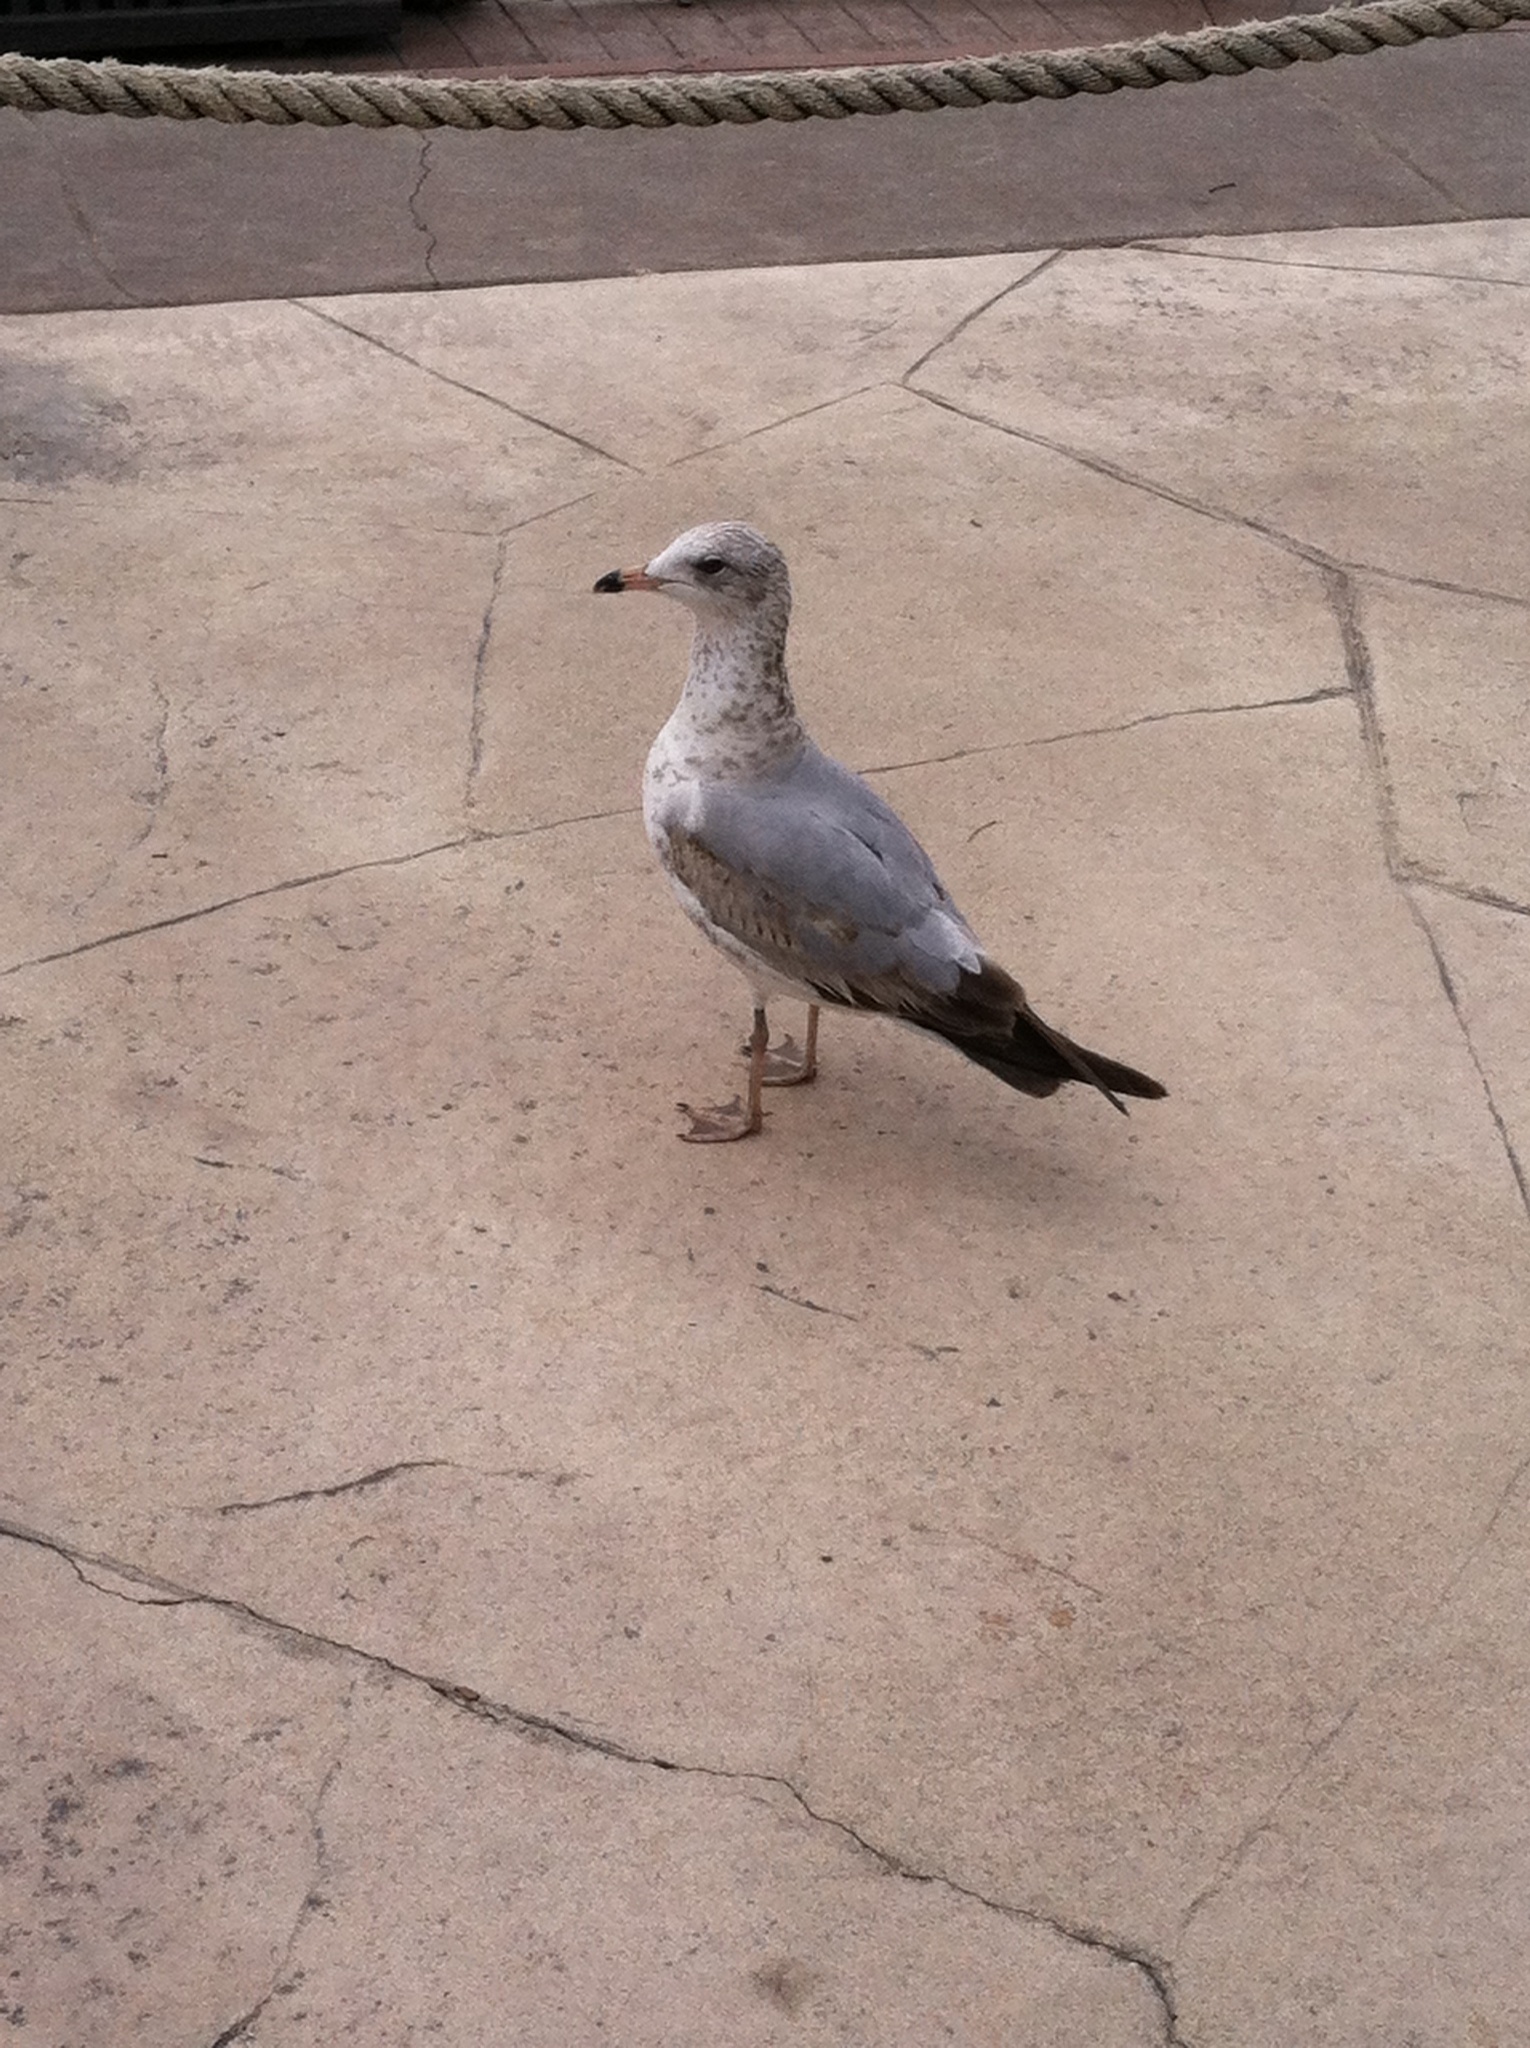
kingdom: Animalia
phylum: Chordata
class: Aves
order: Charadriiformes
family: Laridae
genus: Larus
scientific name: Larus delawarensis
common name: Ring-billed gull
